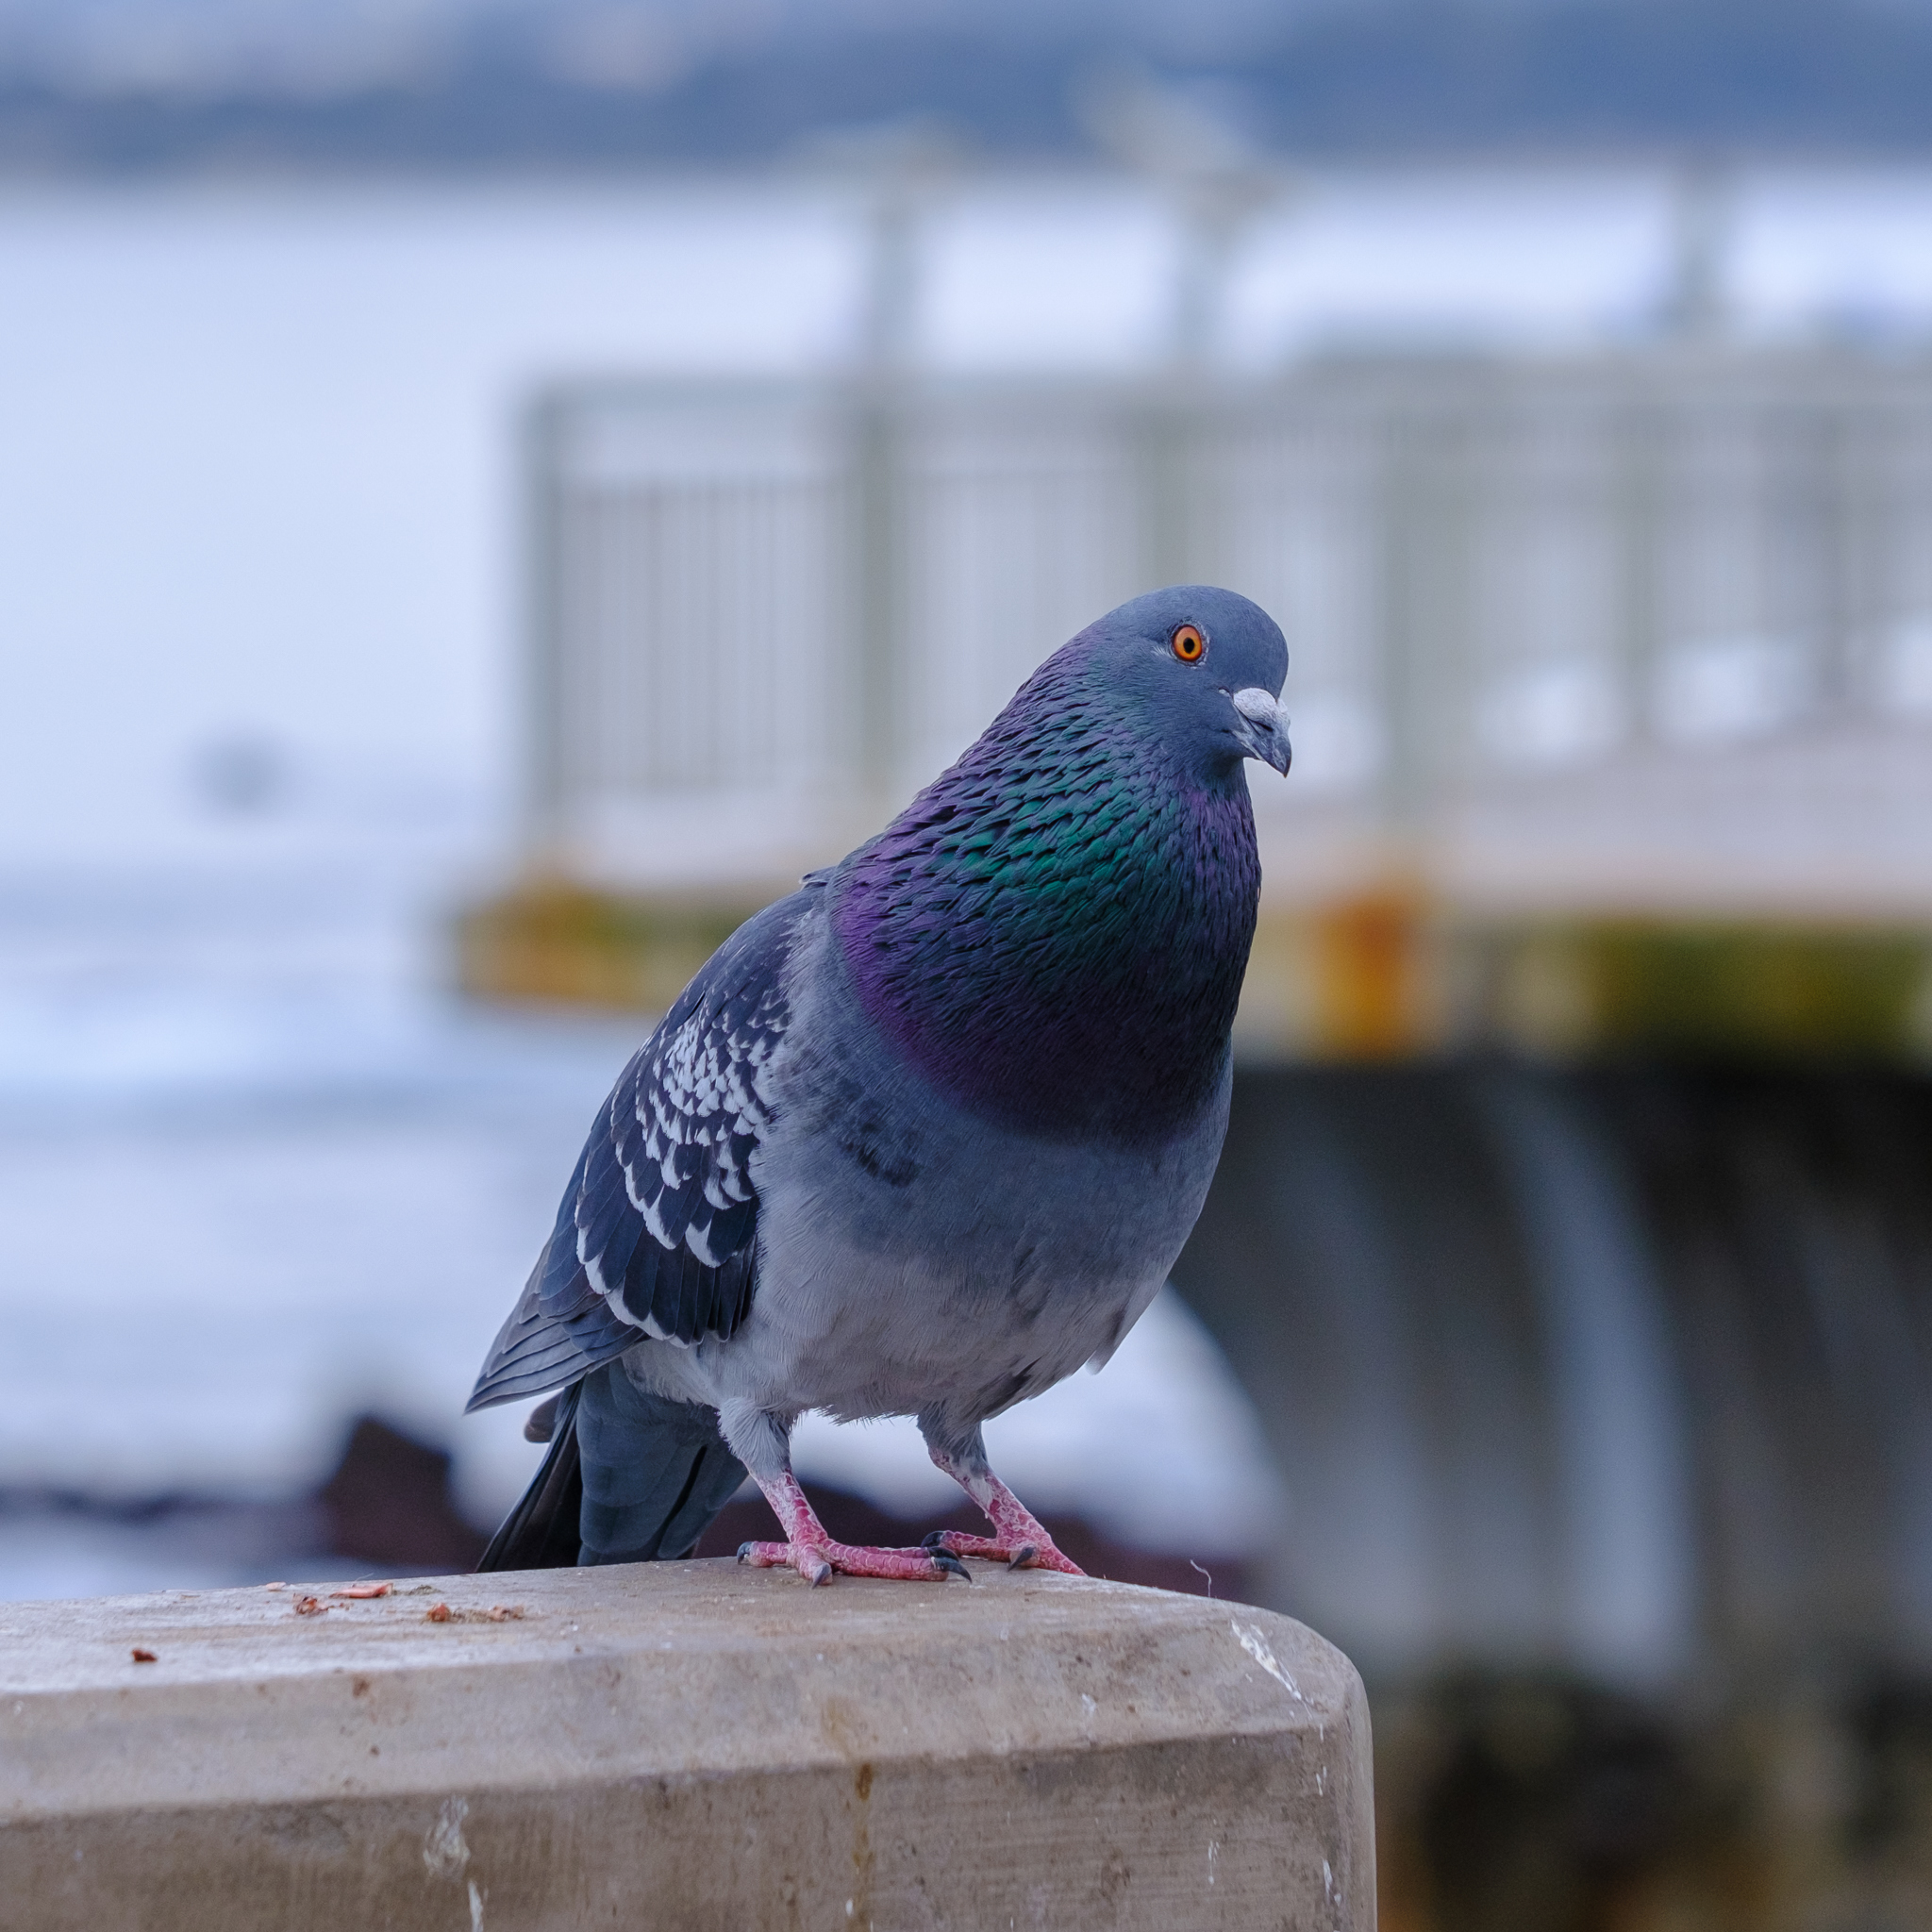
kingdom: Animalia
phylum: Chordata
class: Aves
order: Columbiformes
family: Columbidae
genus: Columba
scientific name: Columba livia
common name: Rock pigeon
